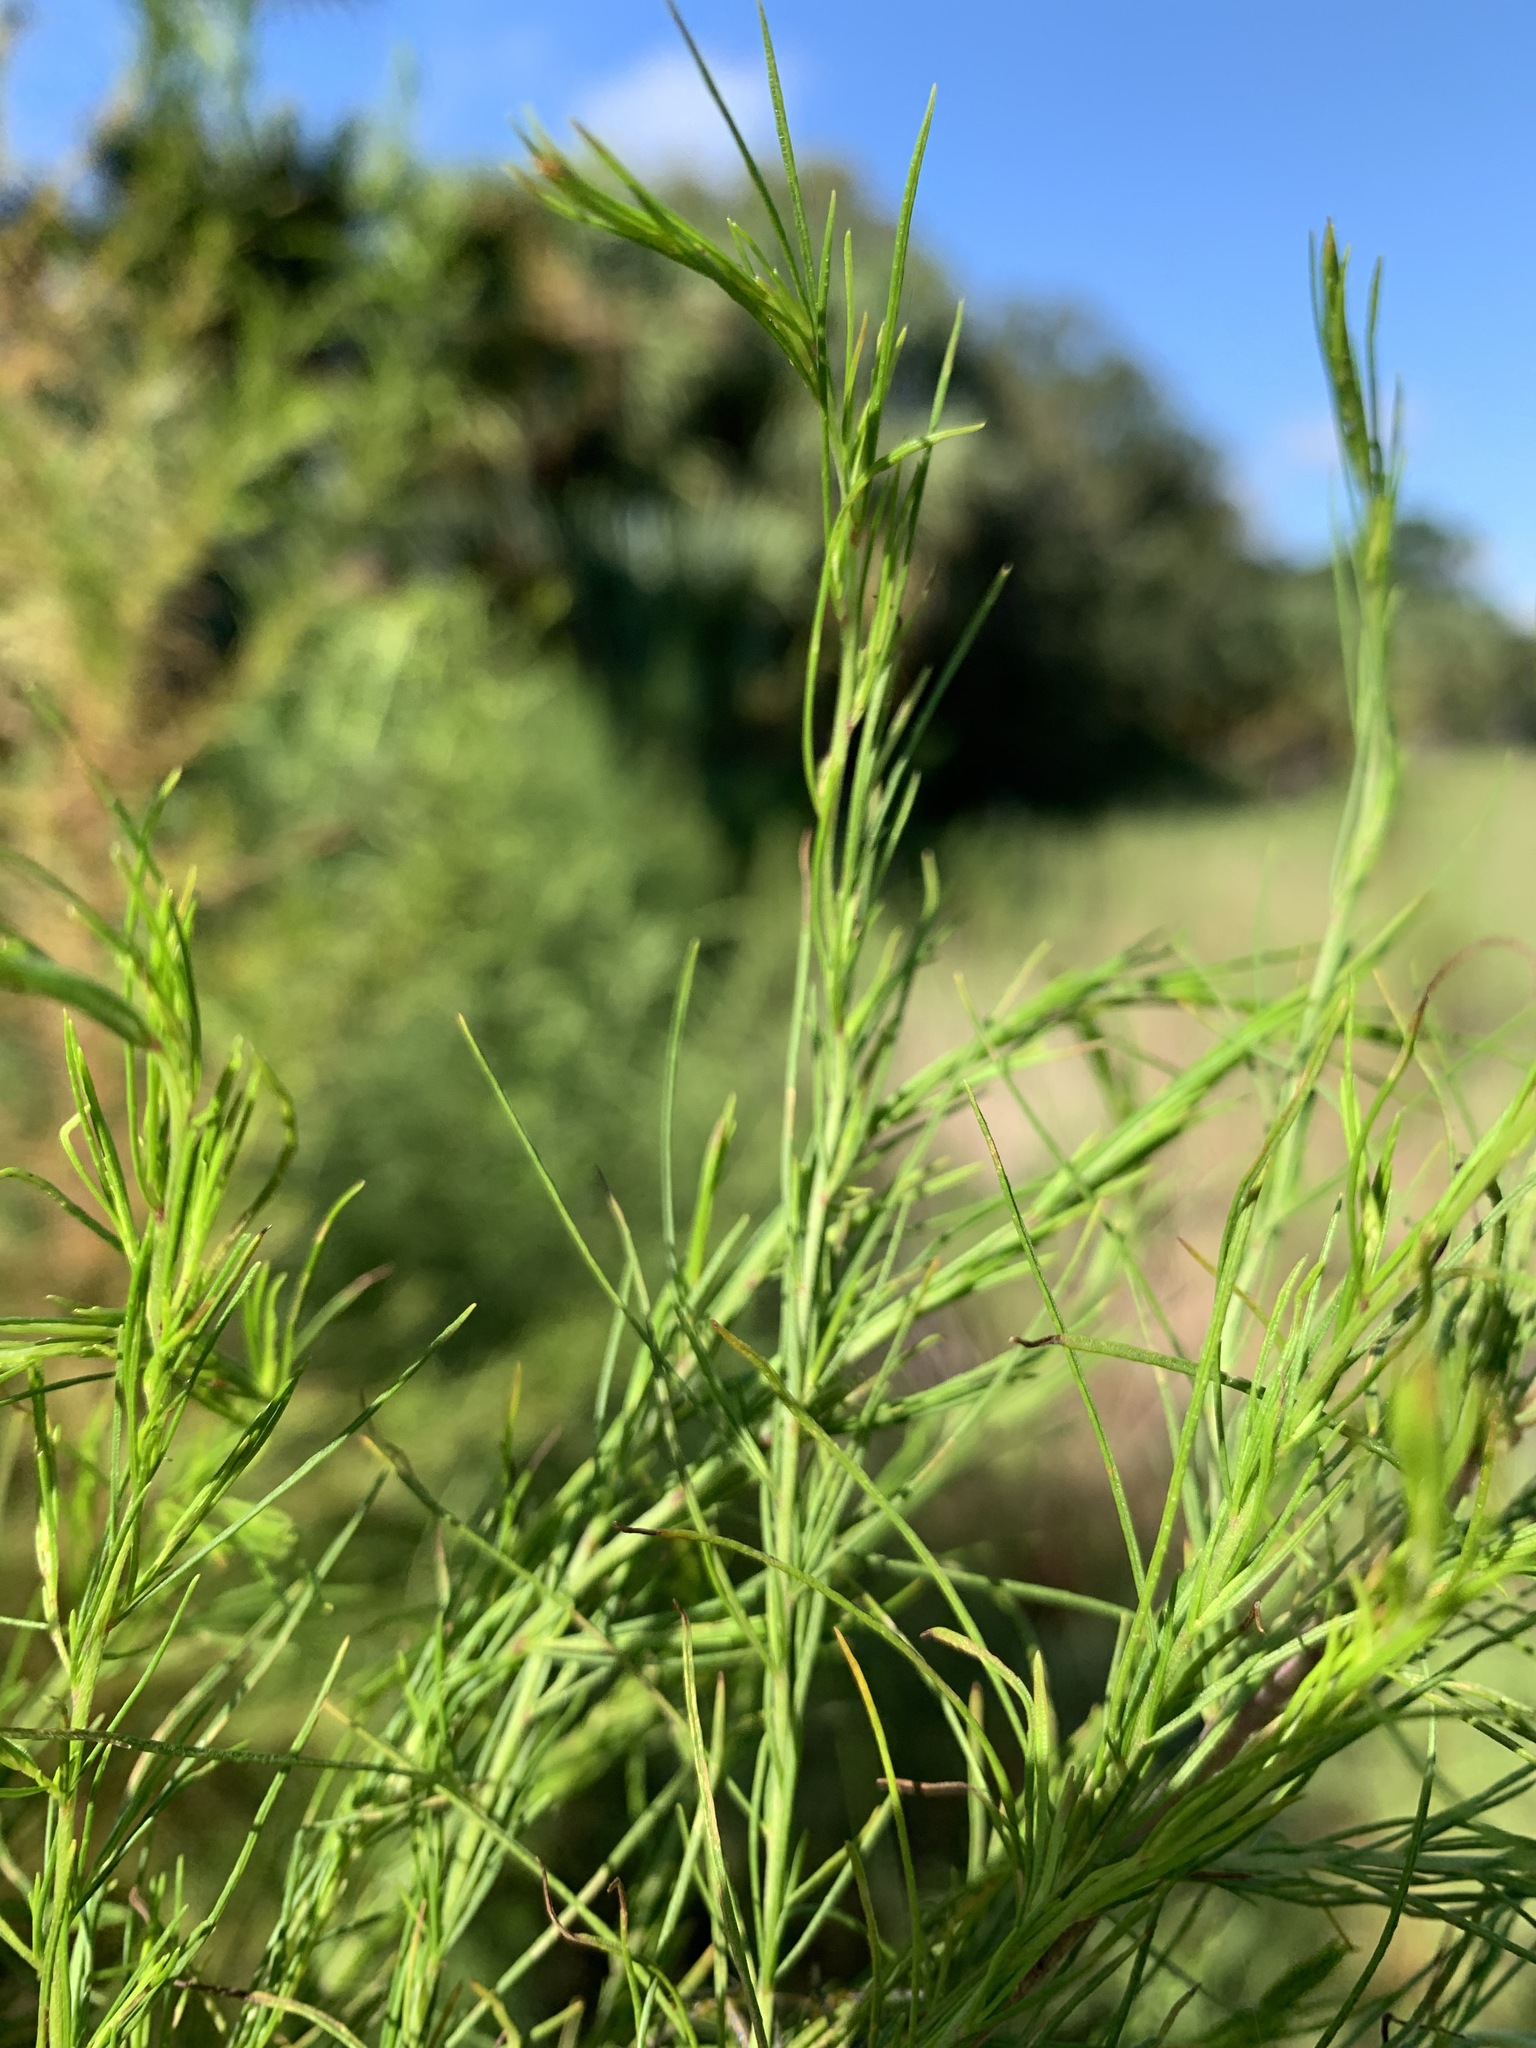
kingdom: Plantae
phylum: Tracheophyta
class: Magnoliopsida
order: Asterales
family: Asteraceae
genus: Eupatorium
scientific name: Eupatorium capillifolium
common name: Dog-fennel
